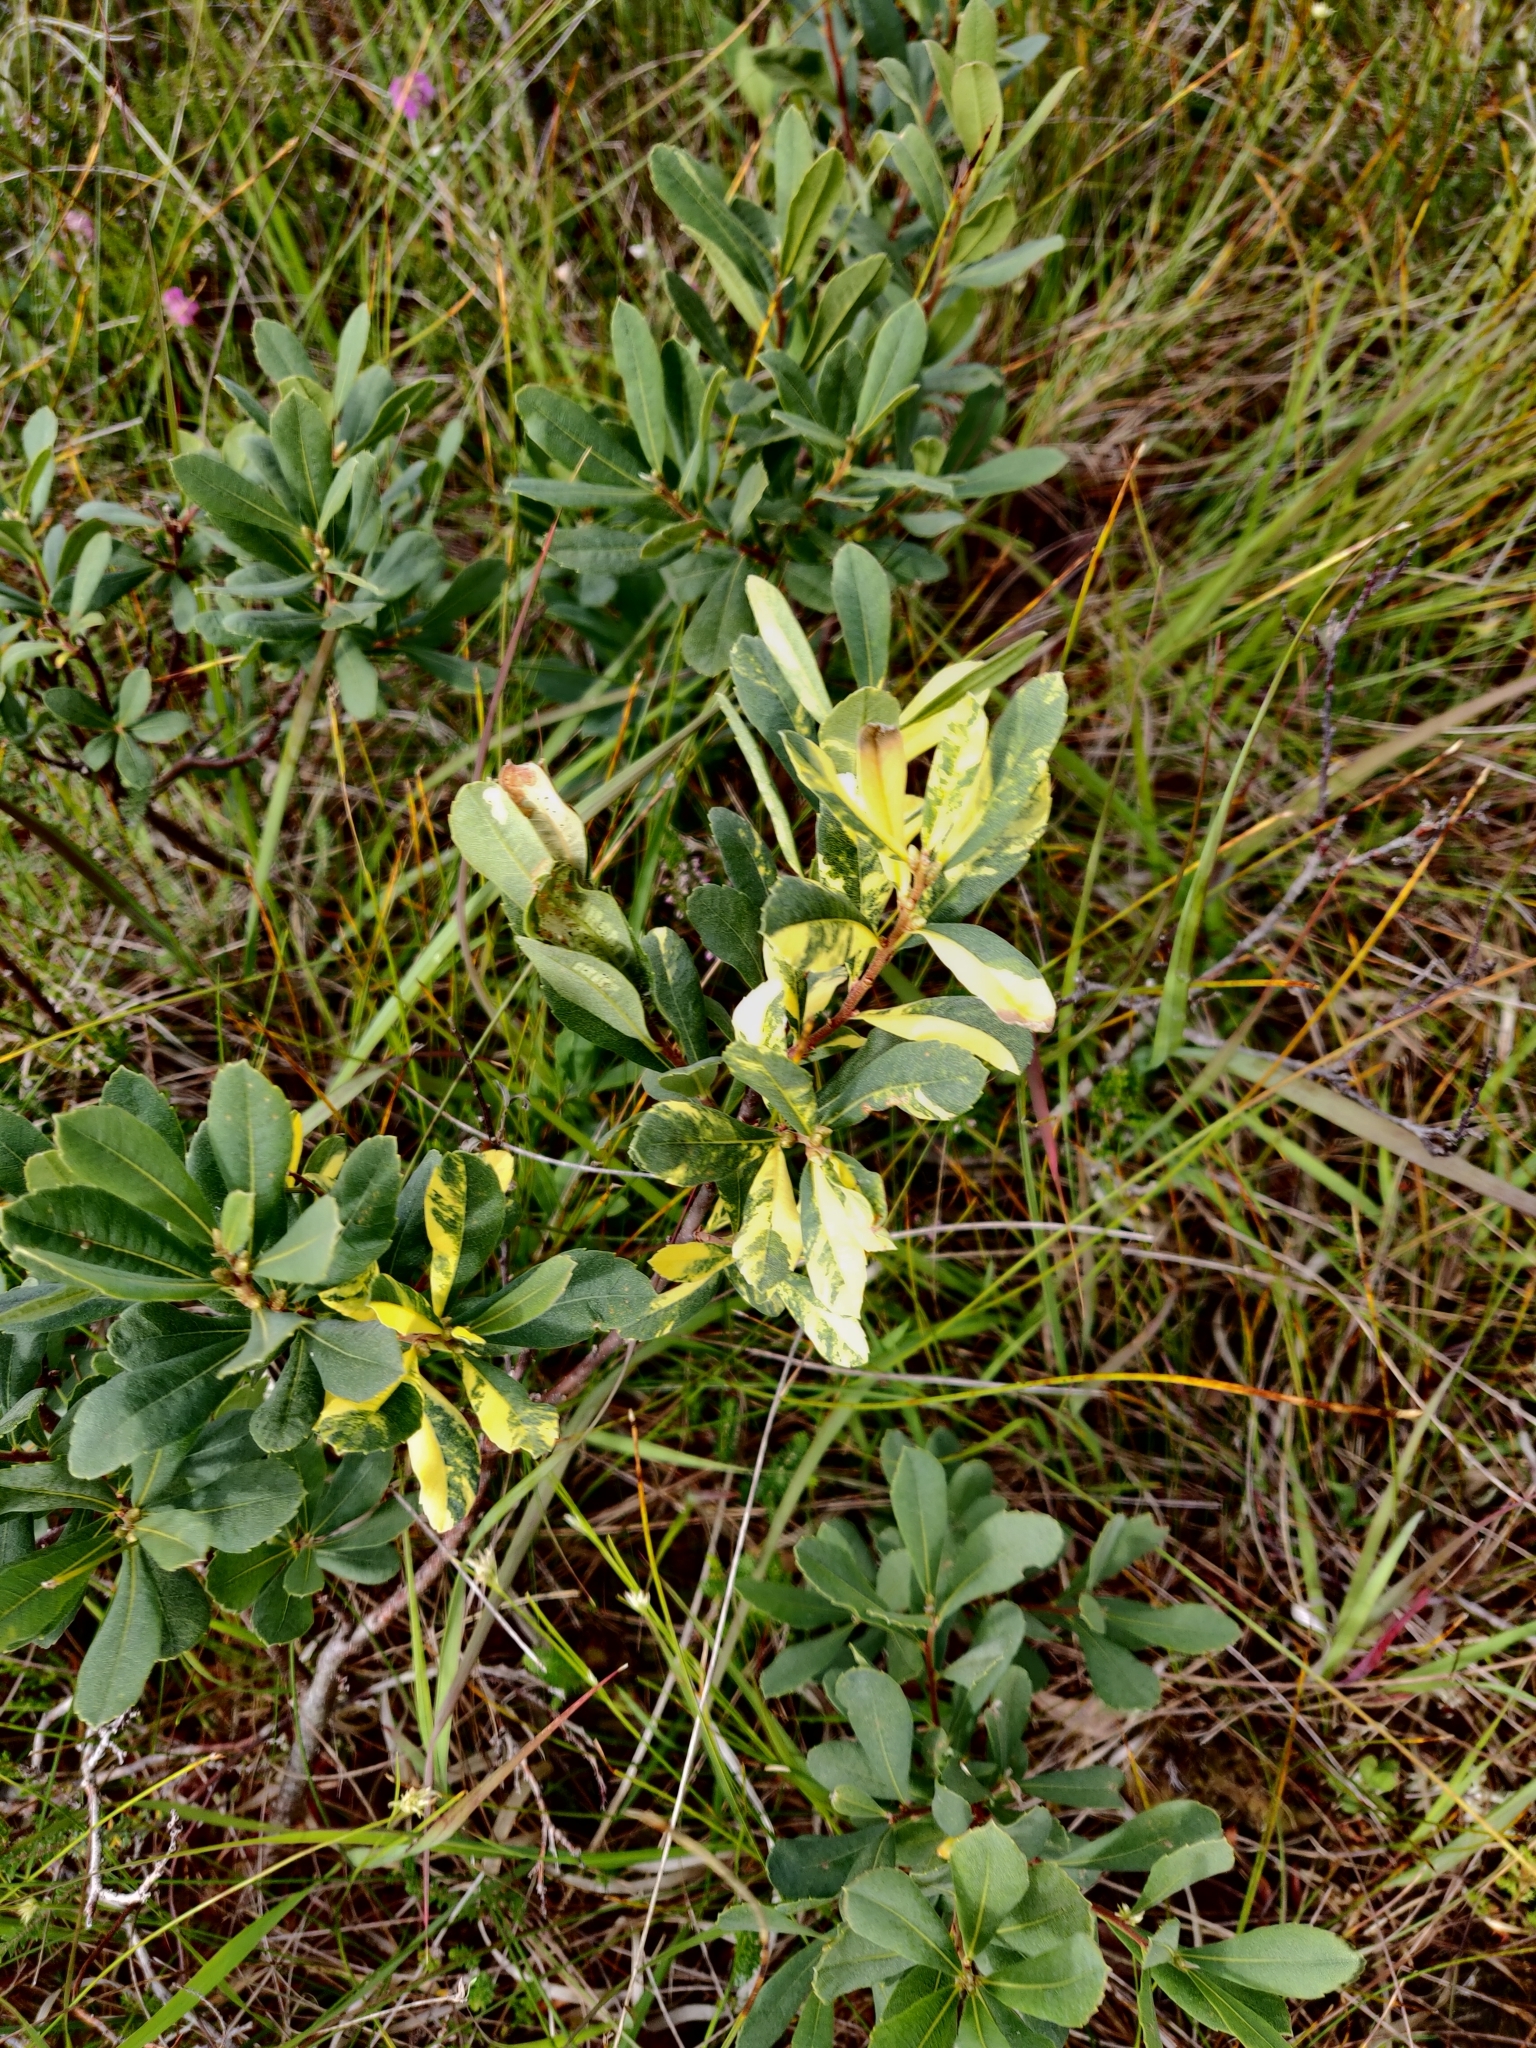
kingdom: Plantae
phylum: Tracheophyta
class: Magnoliopsida
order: Fagales
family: Myricaceae
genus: Myrica
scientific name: Myrica gale
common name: Sweet gale
